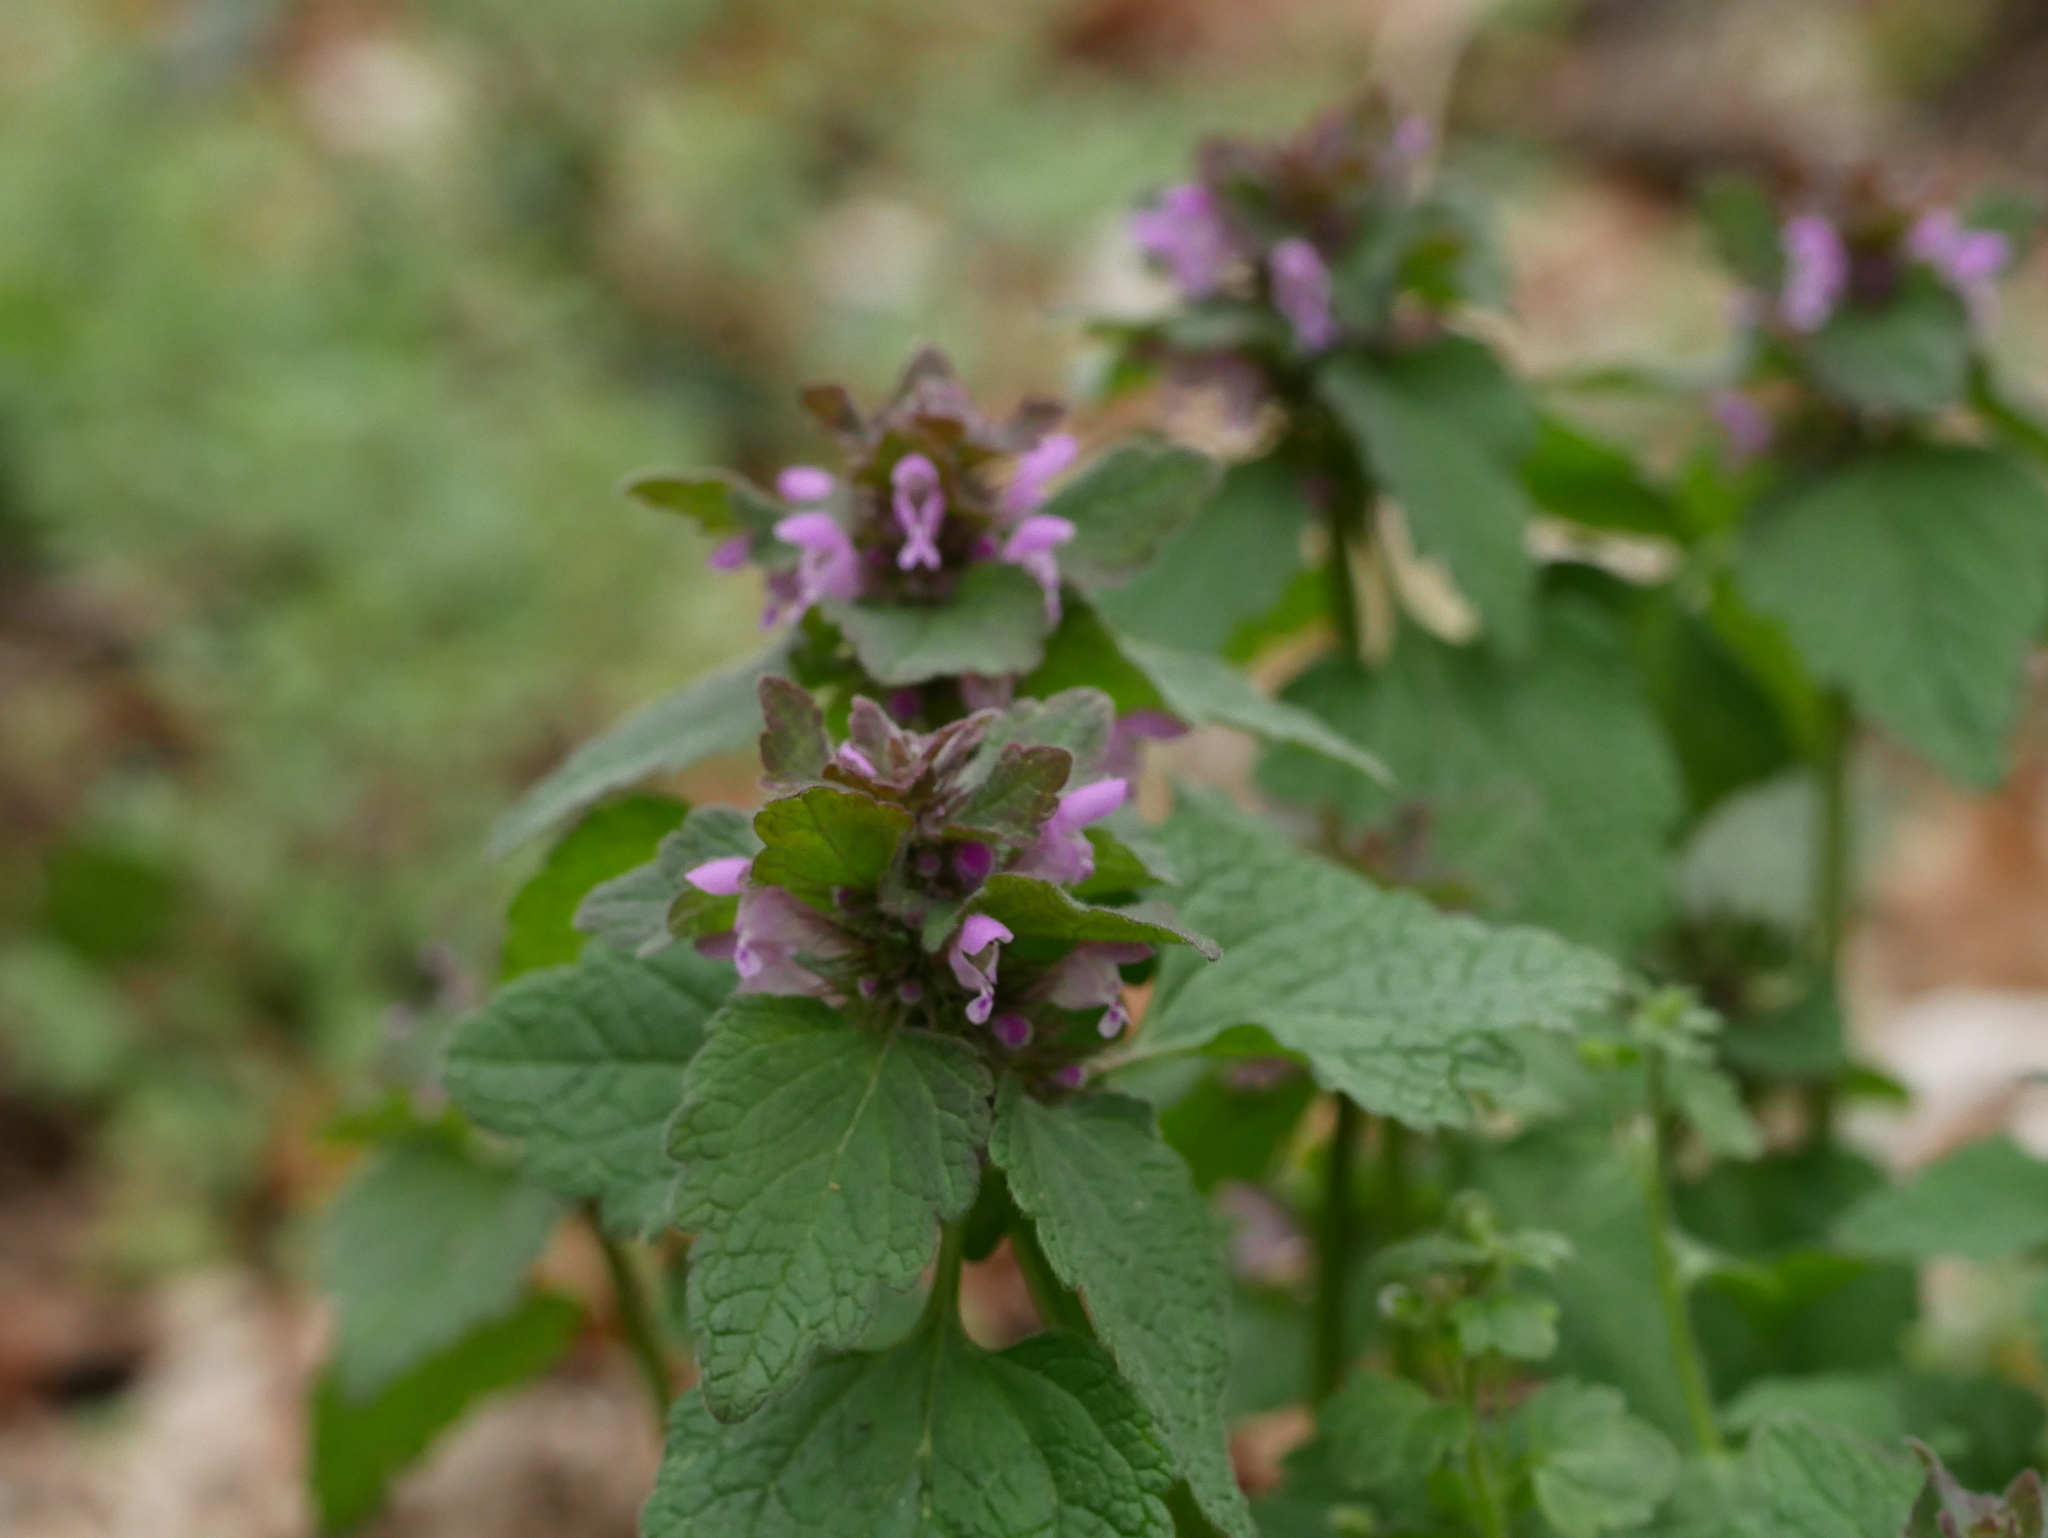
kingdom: Plantae
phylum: Tracheophyta
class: Magnoliopsida
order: Lamiales
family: Lamiaceae
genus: Lamium
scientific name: Lamium purpureum
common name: Red dead-nettle
